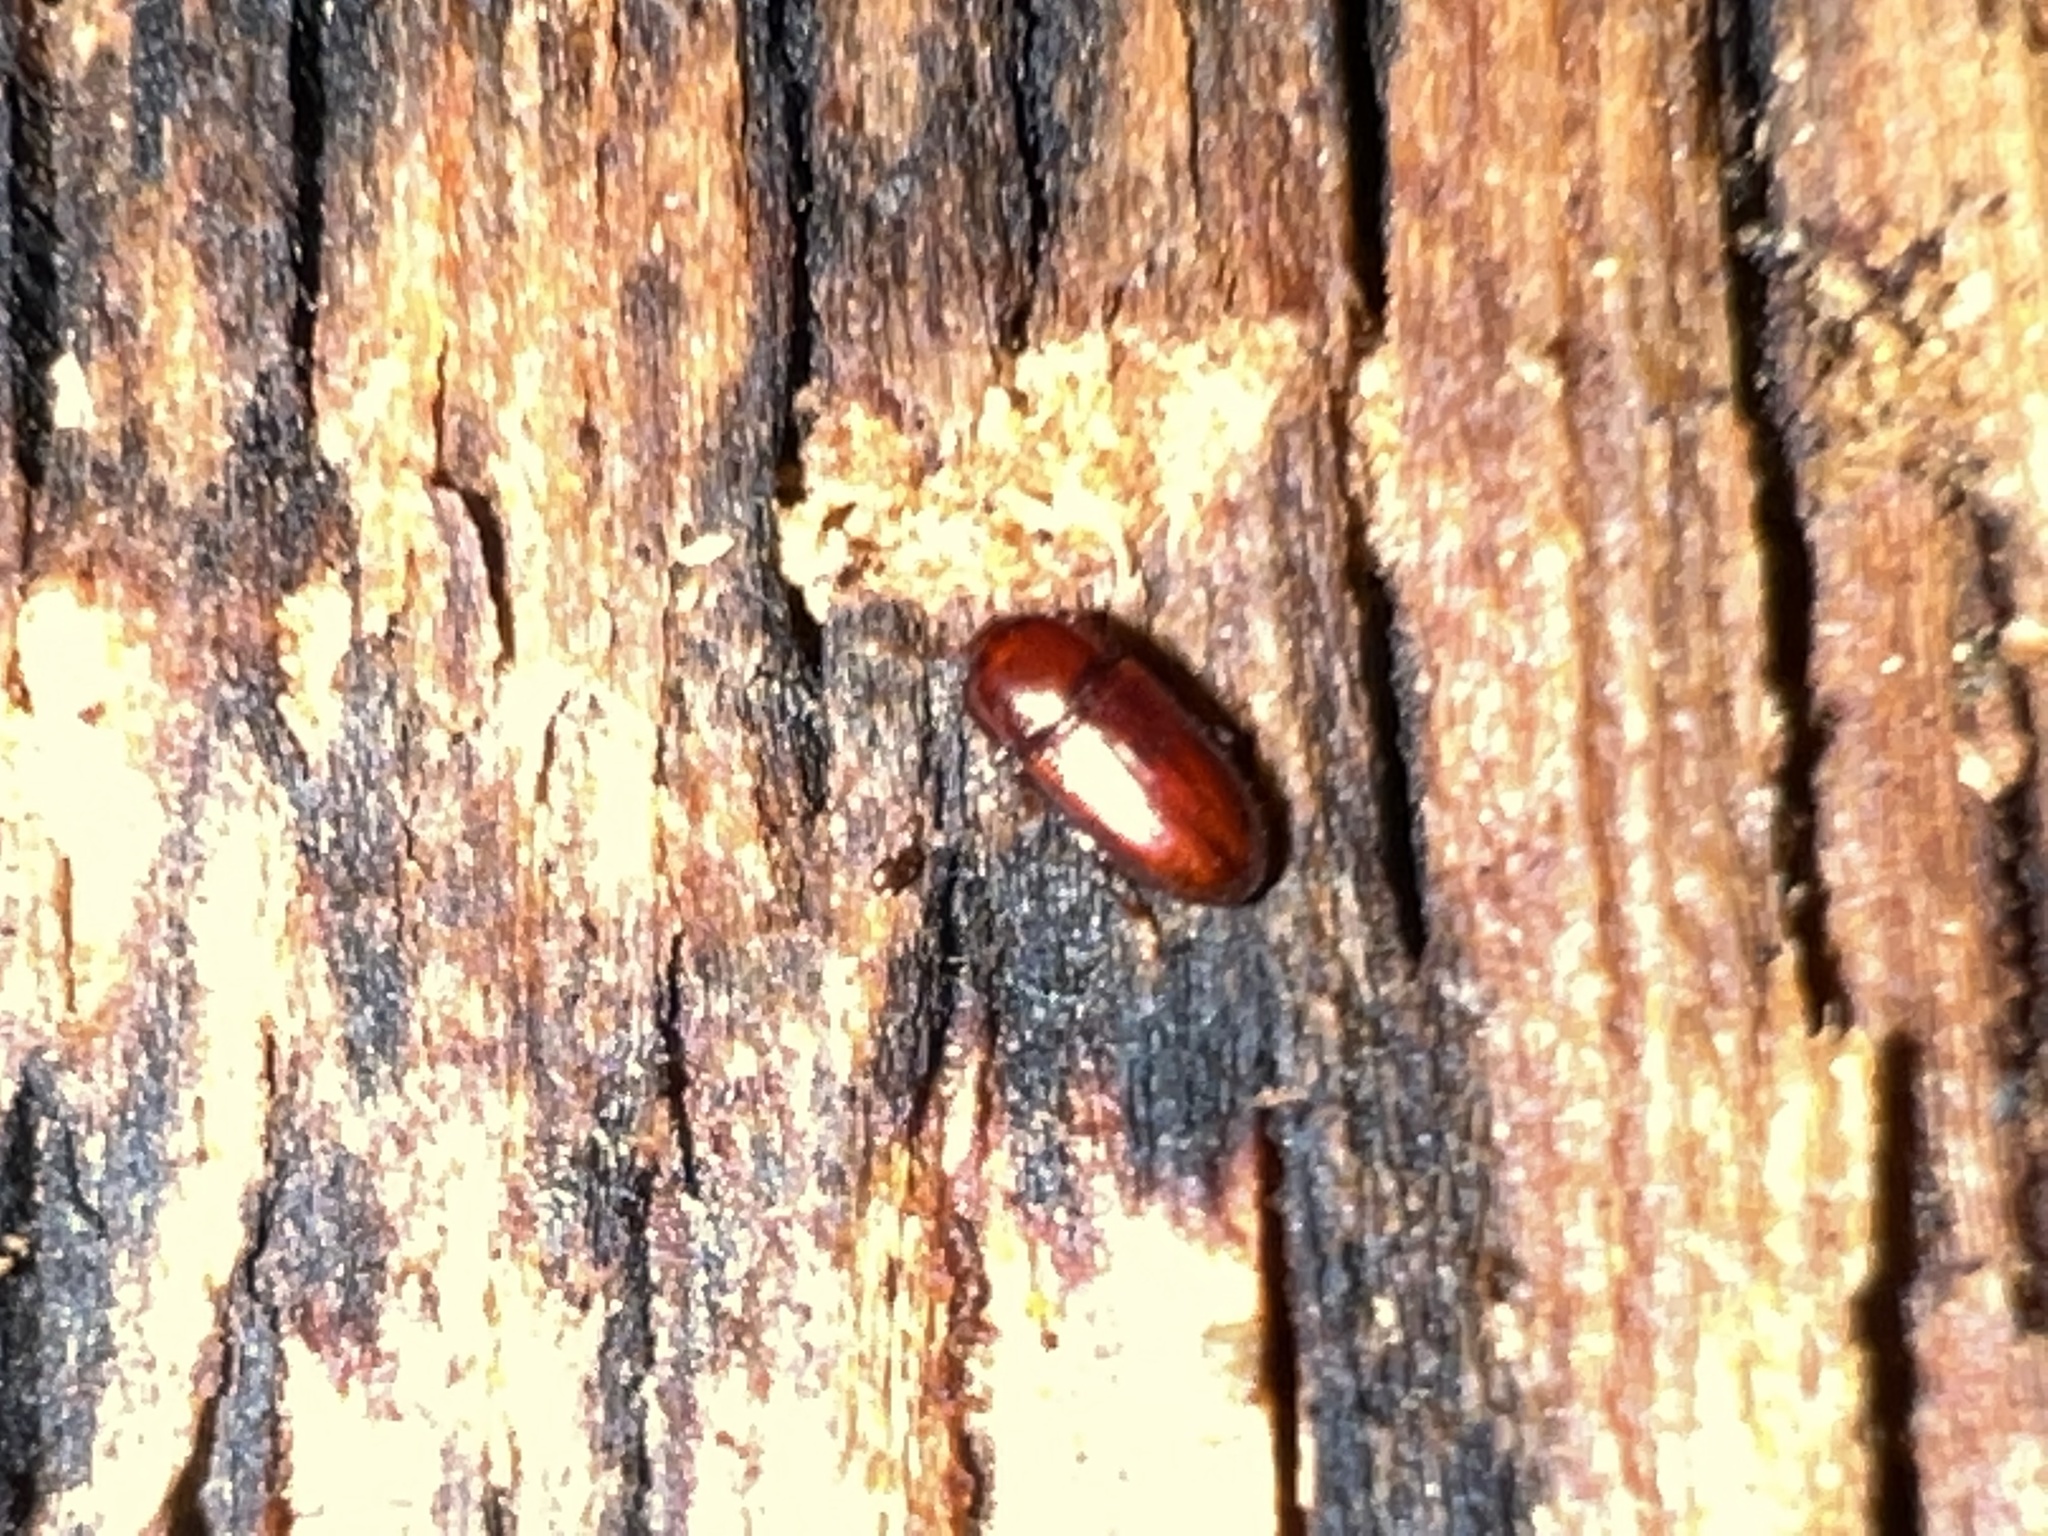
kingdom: Animalia
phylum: Arthropoda
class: Insecta
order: Coleoptera
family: Cerylonidae
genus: Philothermus
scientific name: Philothermus glabriculus
